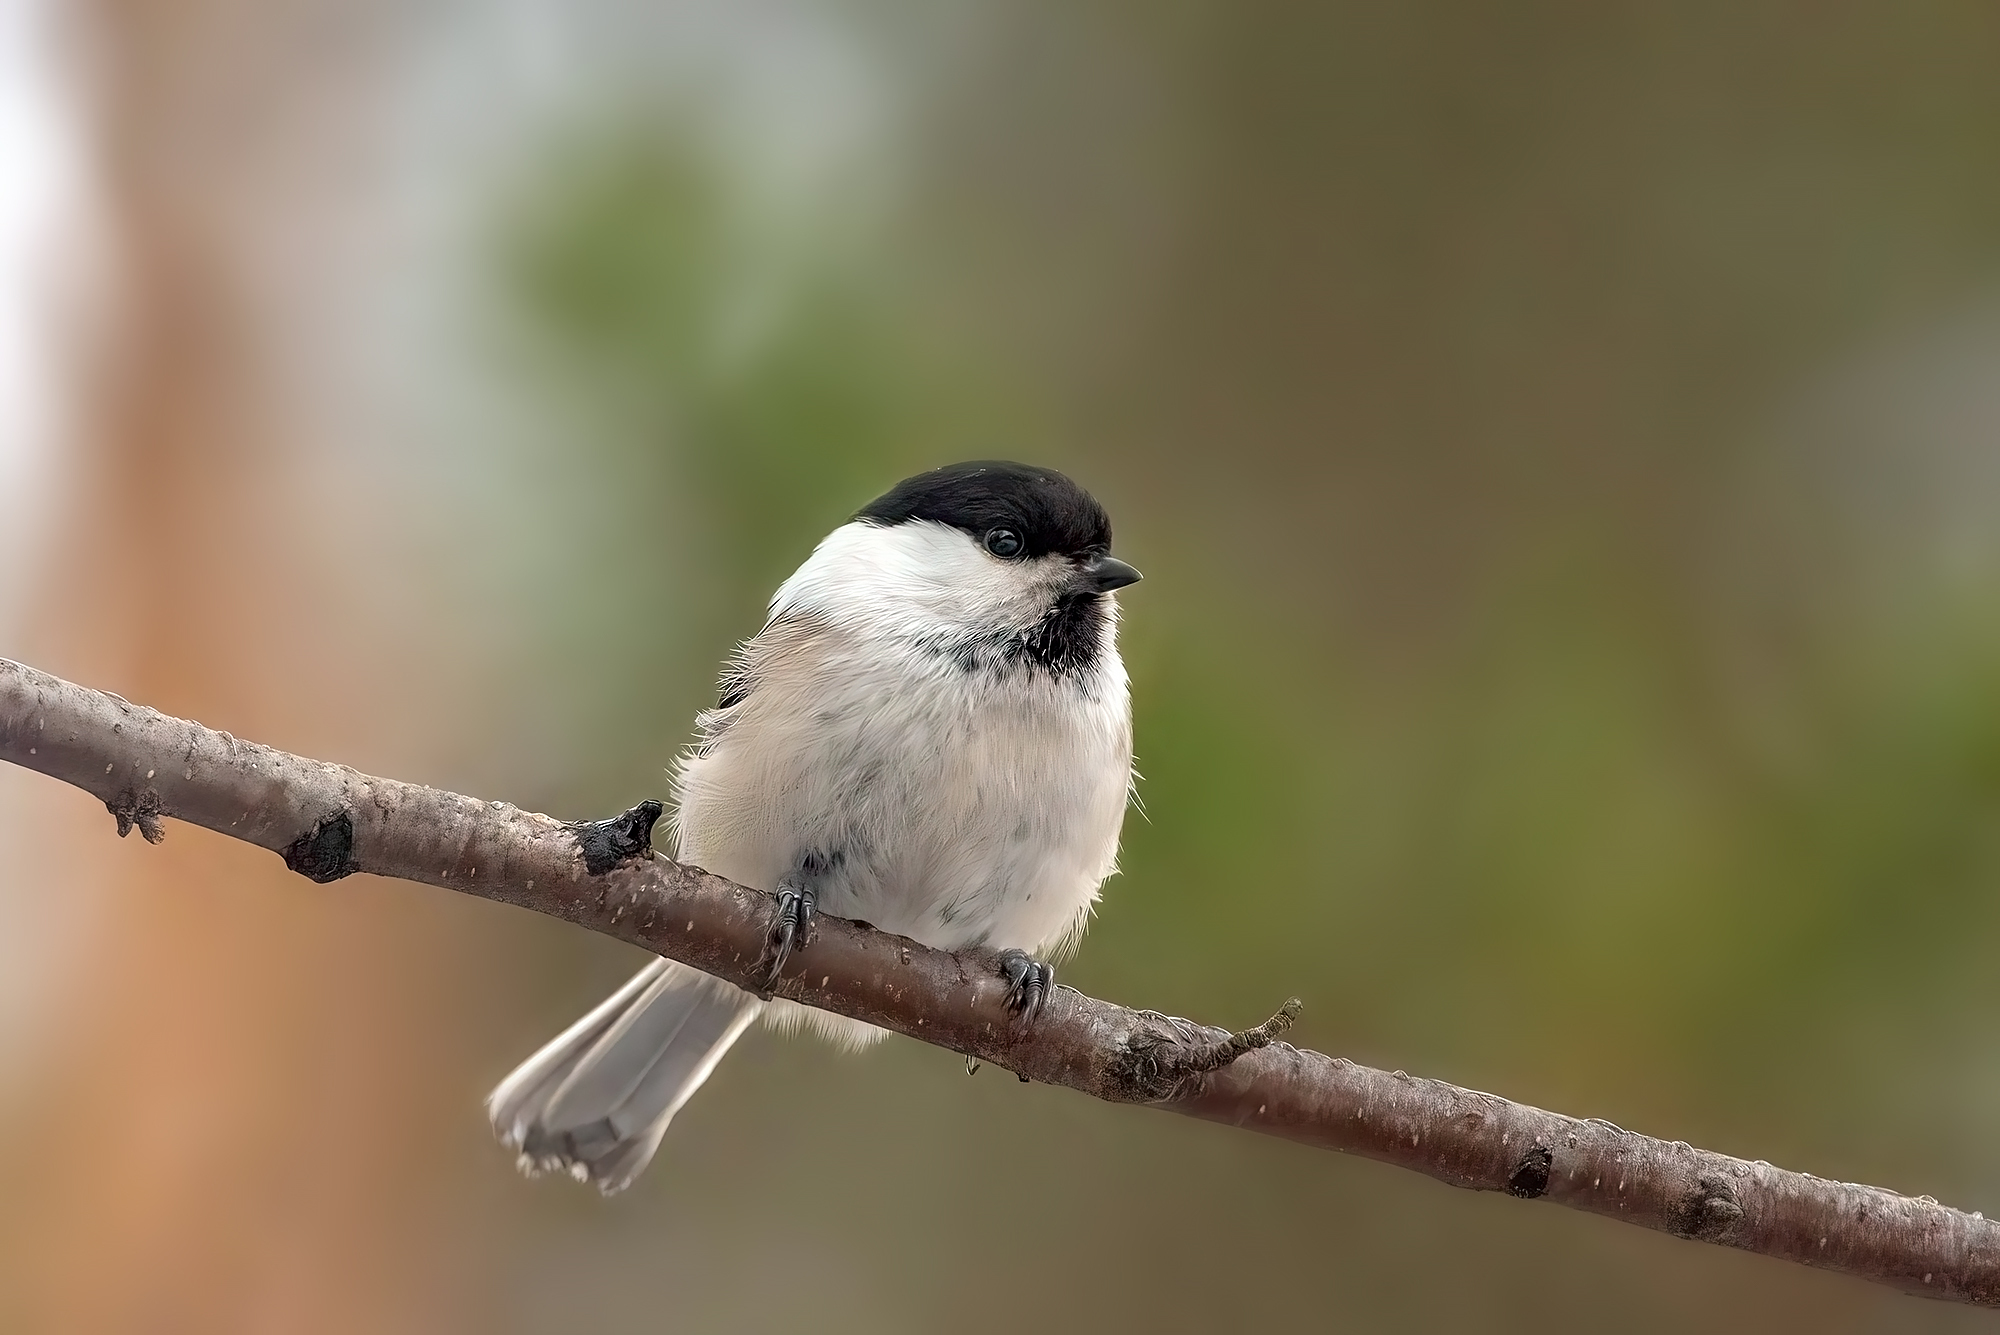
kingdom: Animalia
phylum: Chordata
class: Aves
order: Passeriformes
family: Paridae
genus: Poecile
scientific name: Poecile montanus
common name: Willow tit
